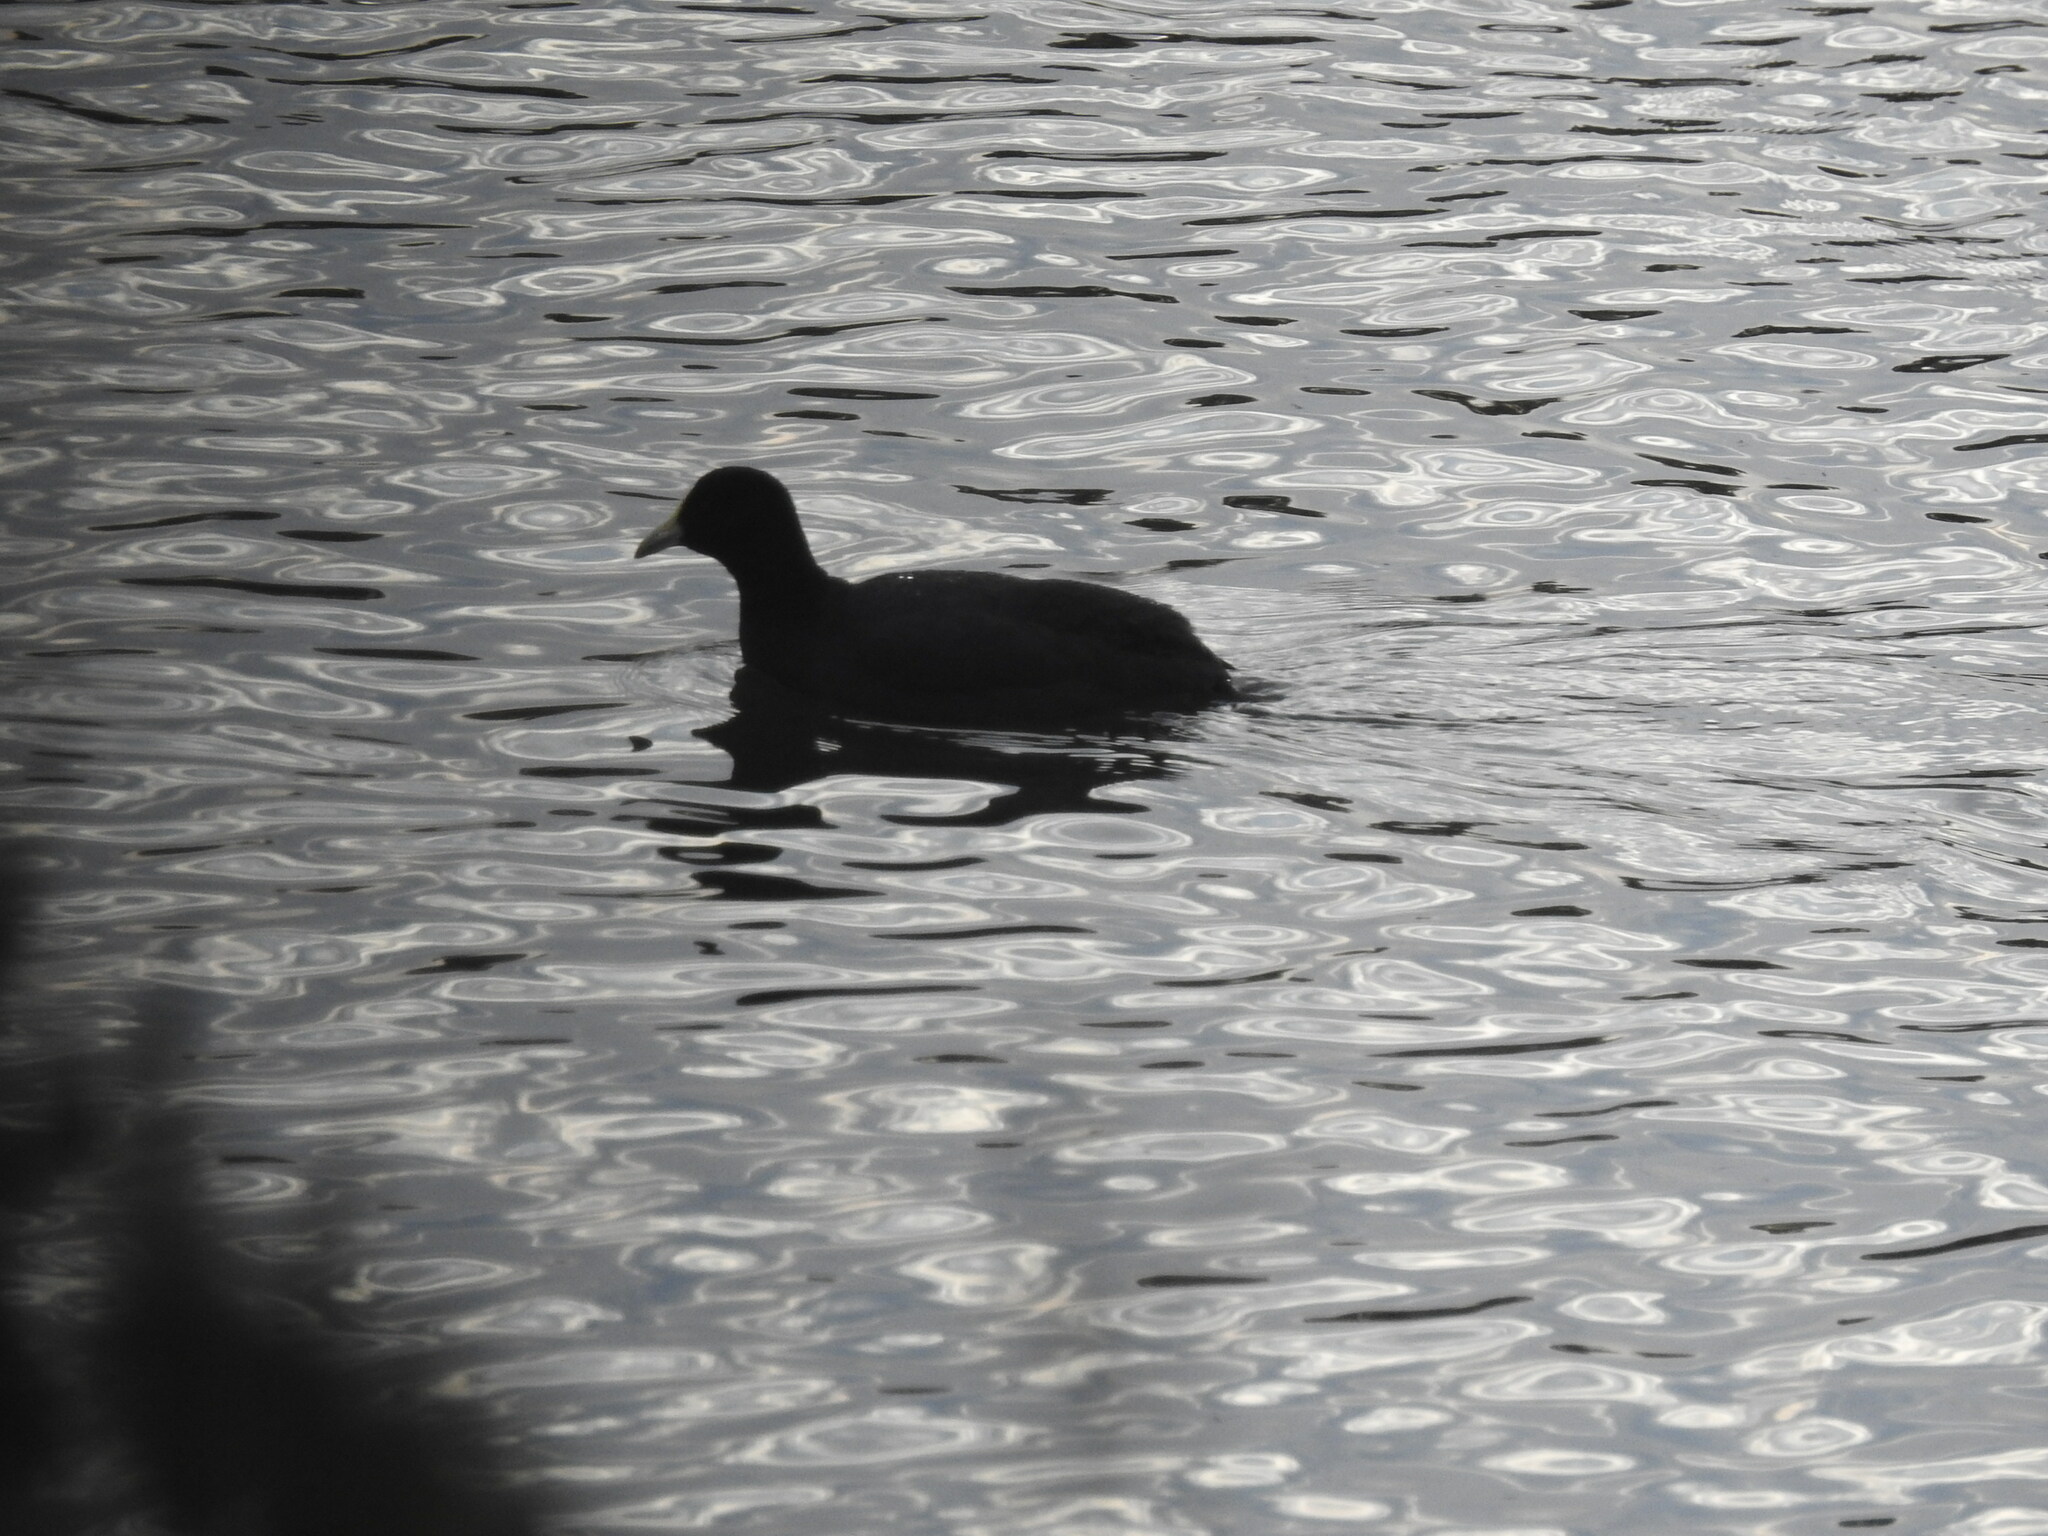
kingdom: Animalia
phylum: Chordata
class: Aves
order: Gruiformes
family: Rallidae
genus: Fulica
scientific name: Fulica leucoptera
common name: White-winged coot
